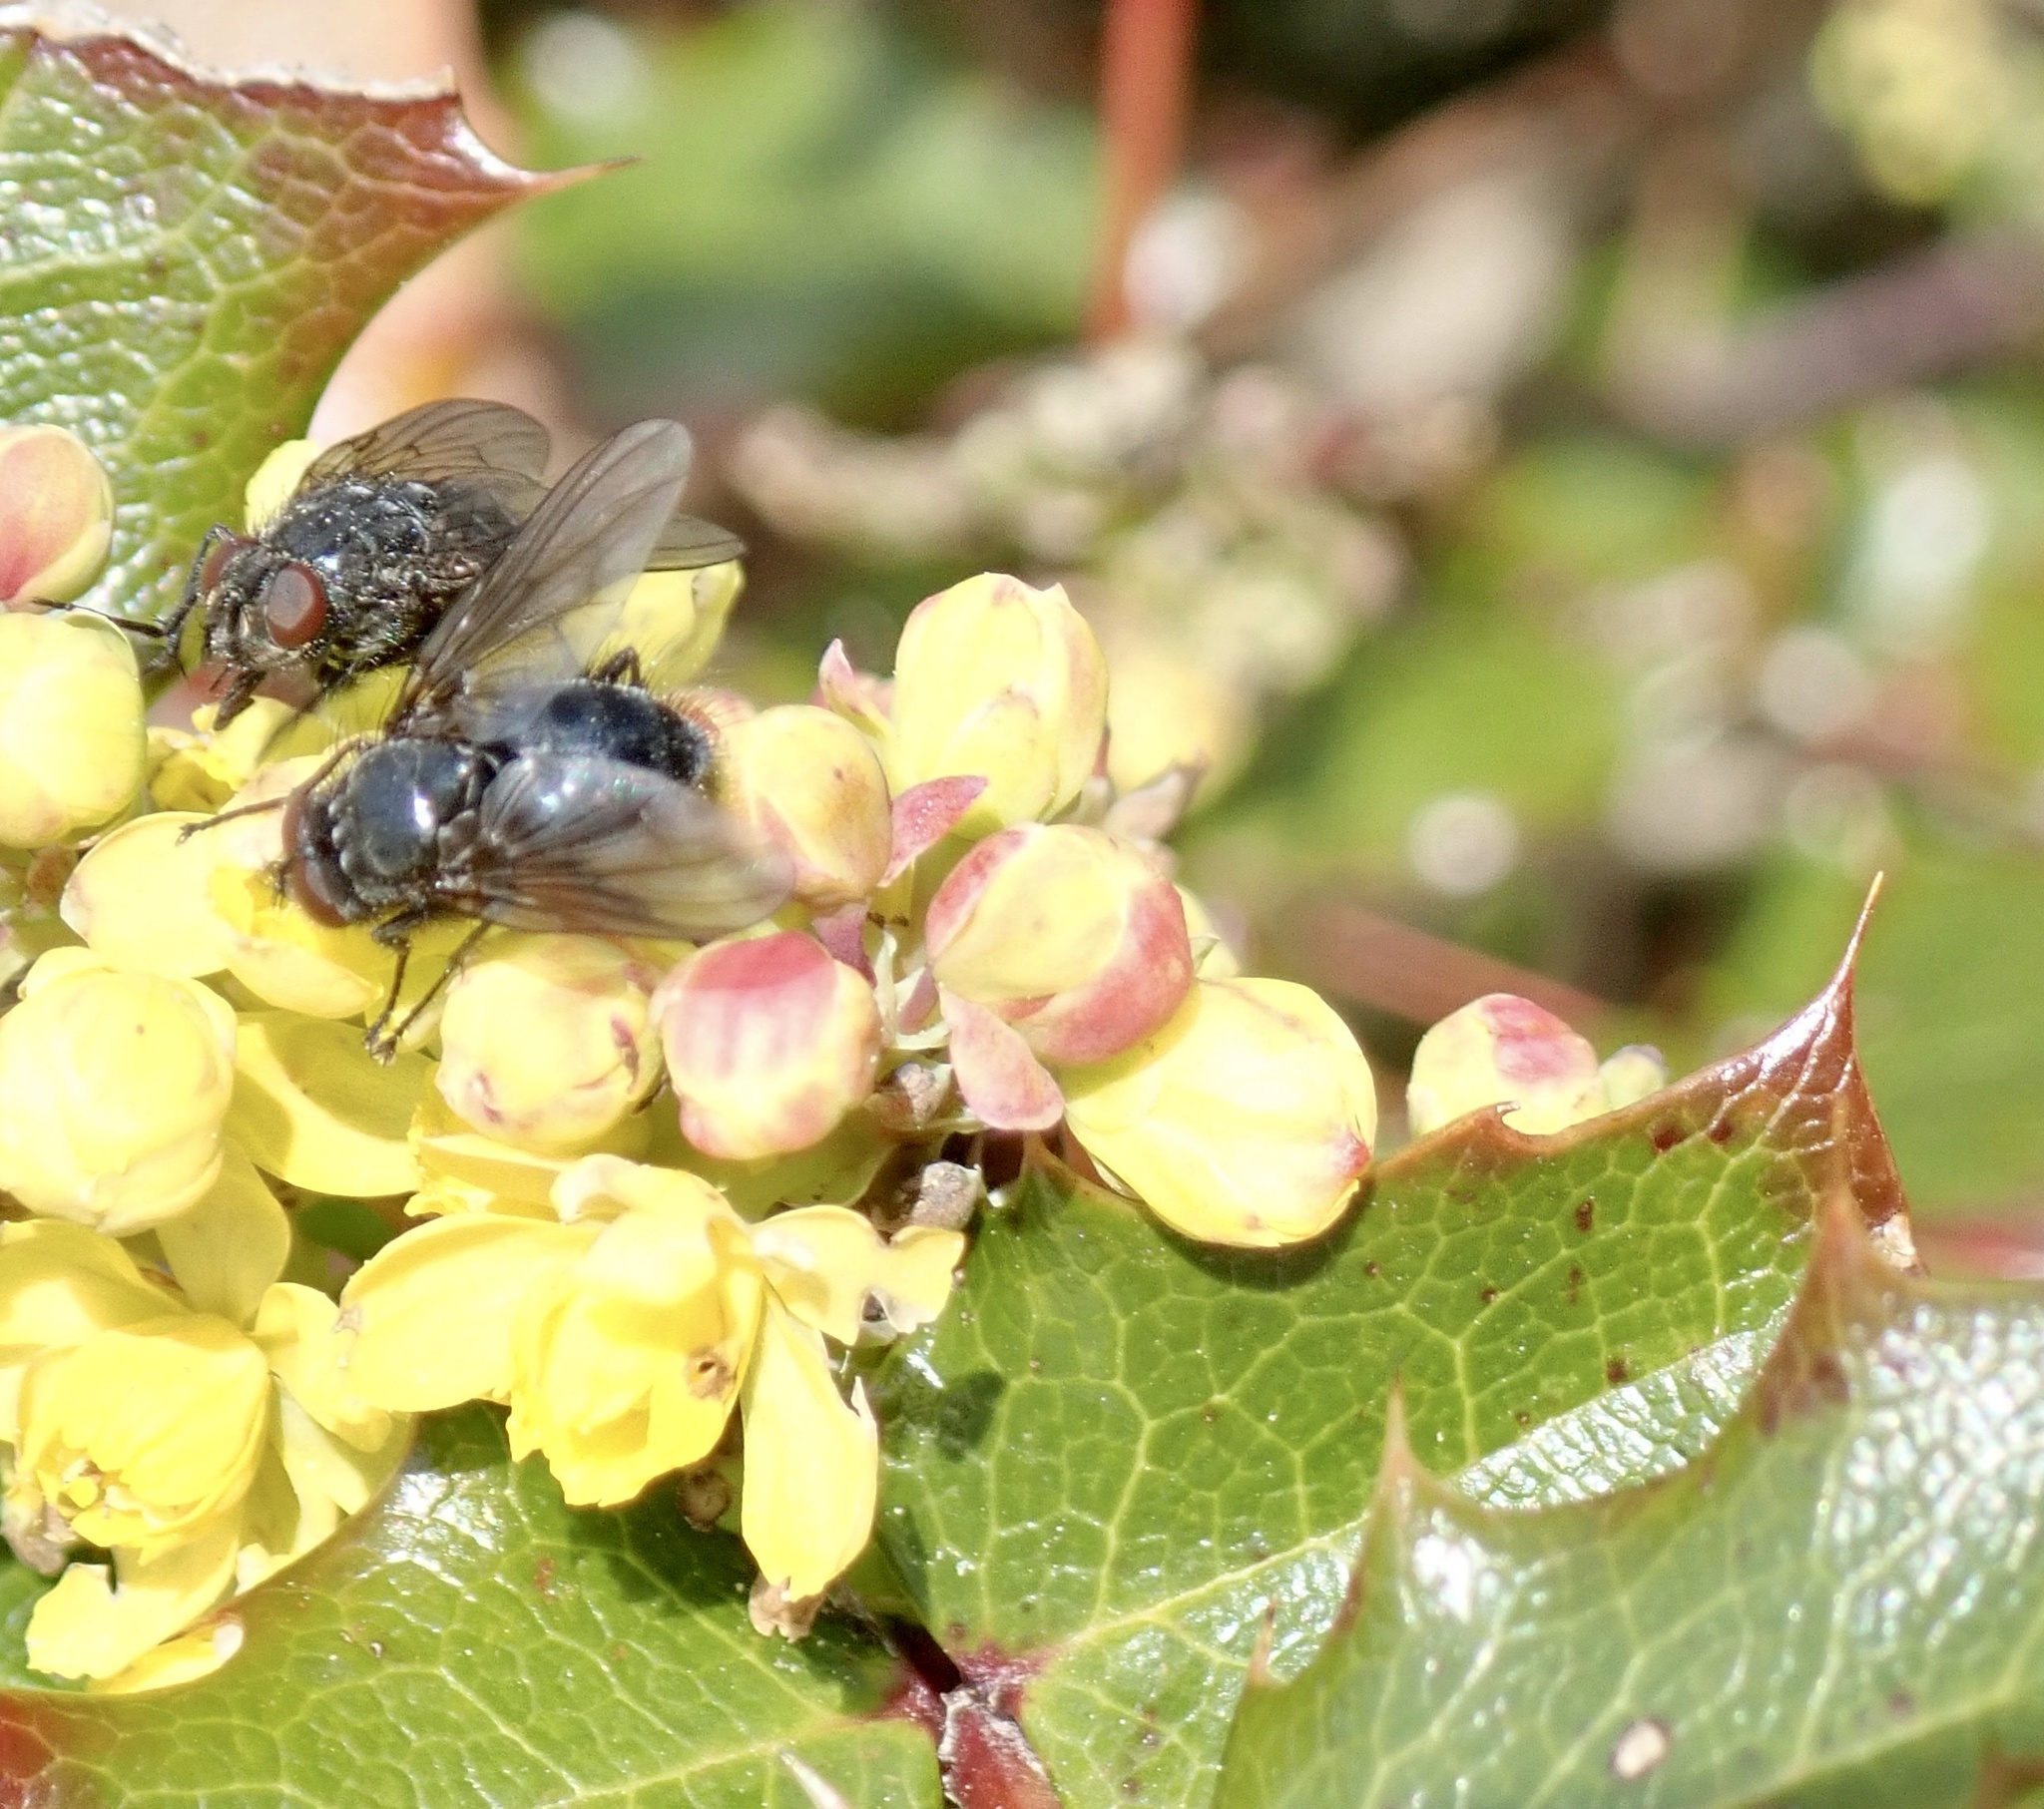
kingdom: Plantae
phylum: Tracheophyta
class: Magnoliopsida
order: Ranunculales
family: Berberidaceae
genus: Mahonia
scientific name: Mahonia aquifolium
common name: Oregon-grape
